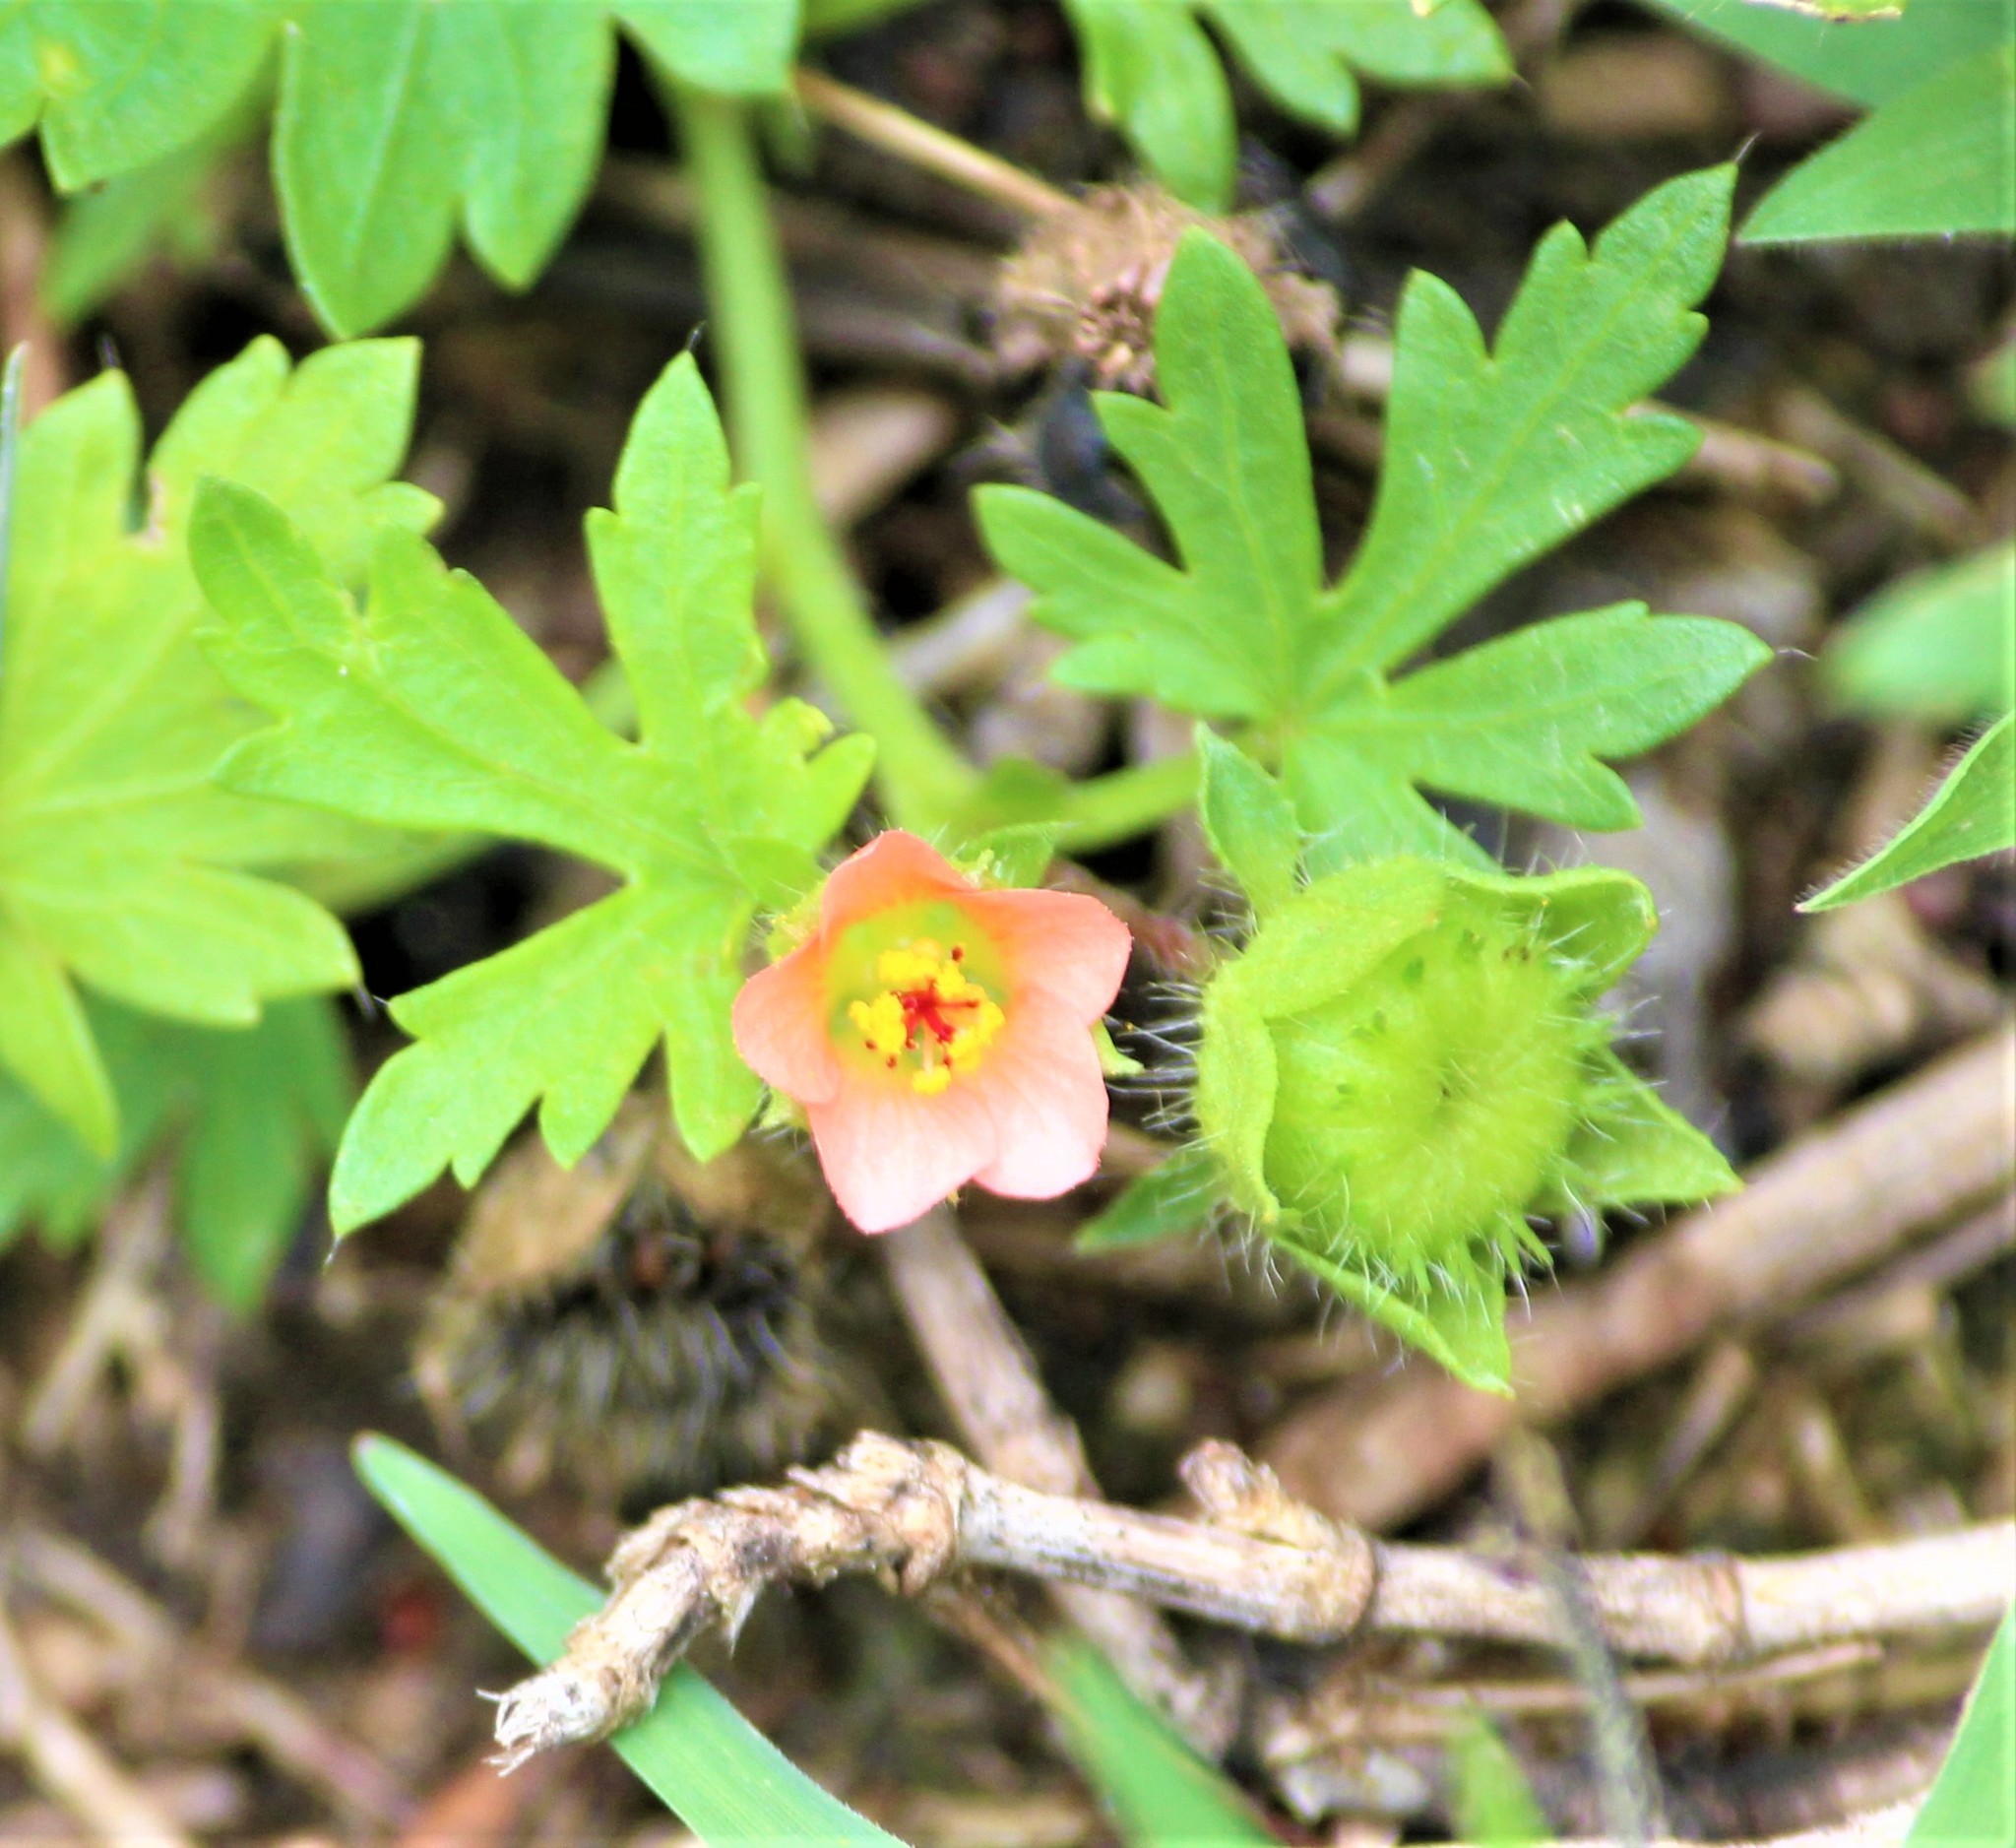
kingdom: Plantae
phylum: Tracheophyta
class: Magnoliopsida
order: Malvales
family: Malvaceae
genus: Modiola
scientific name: Modiola caroliniana
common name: Carolina bristlemallow
